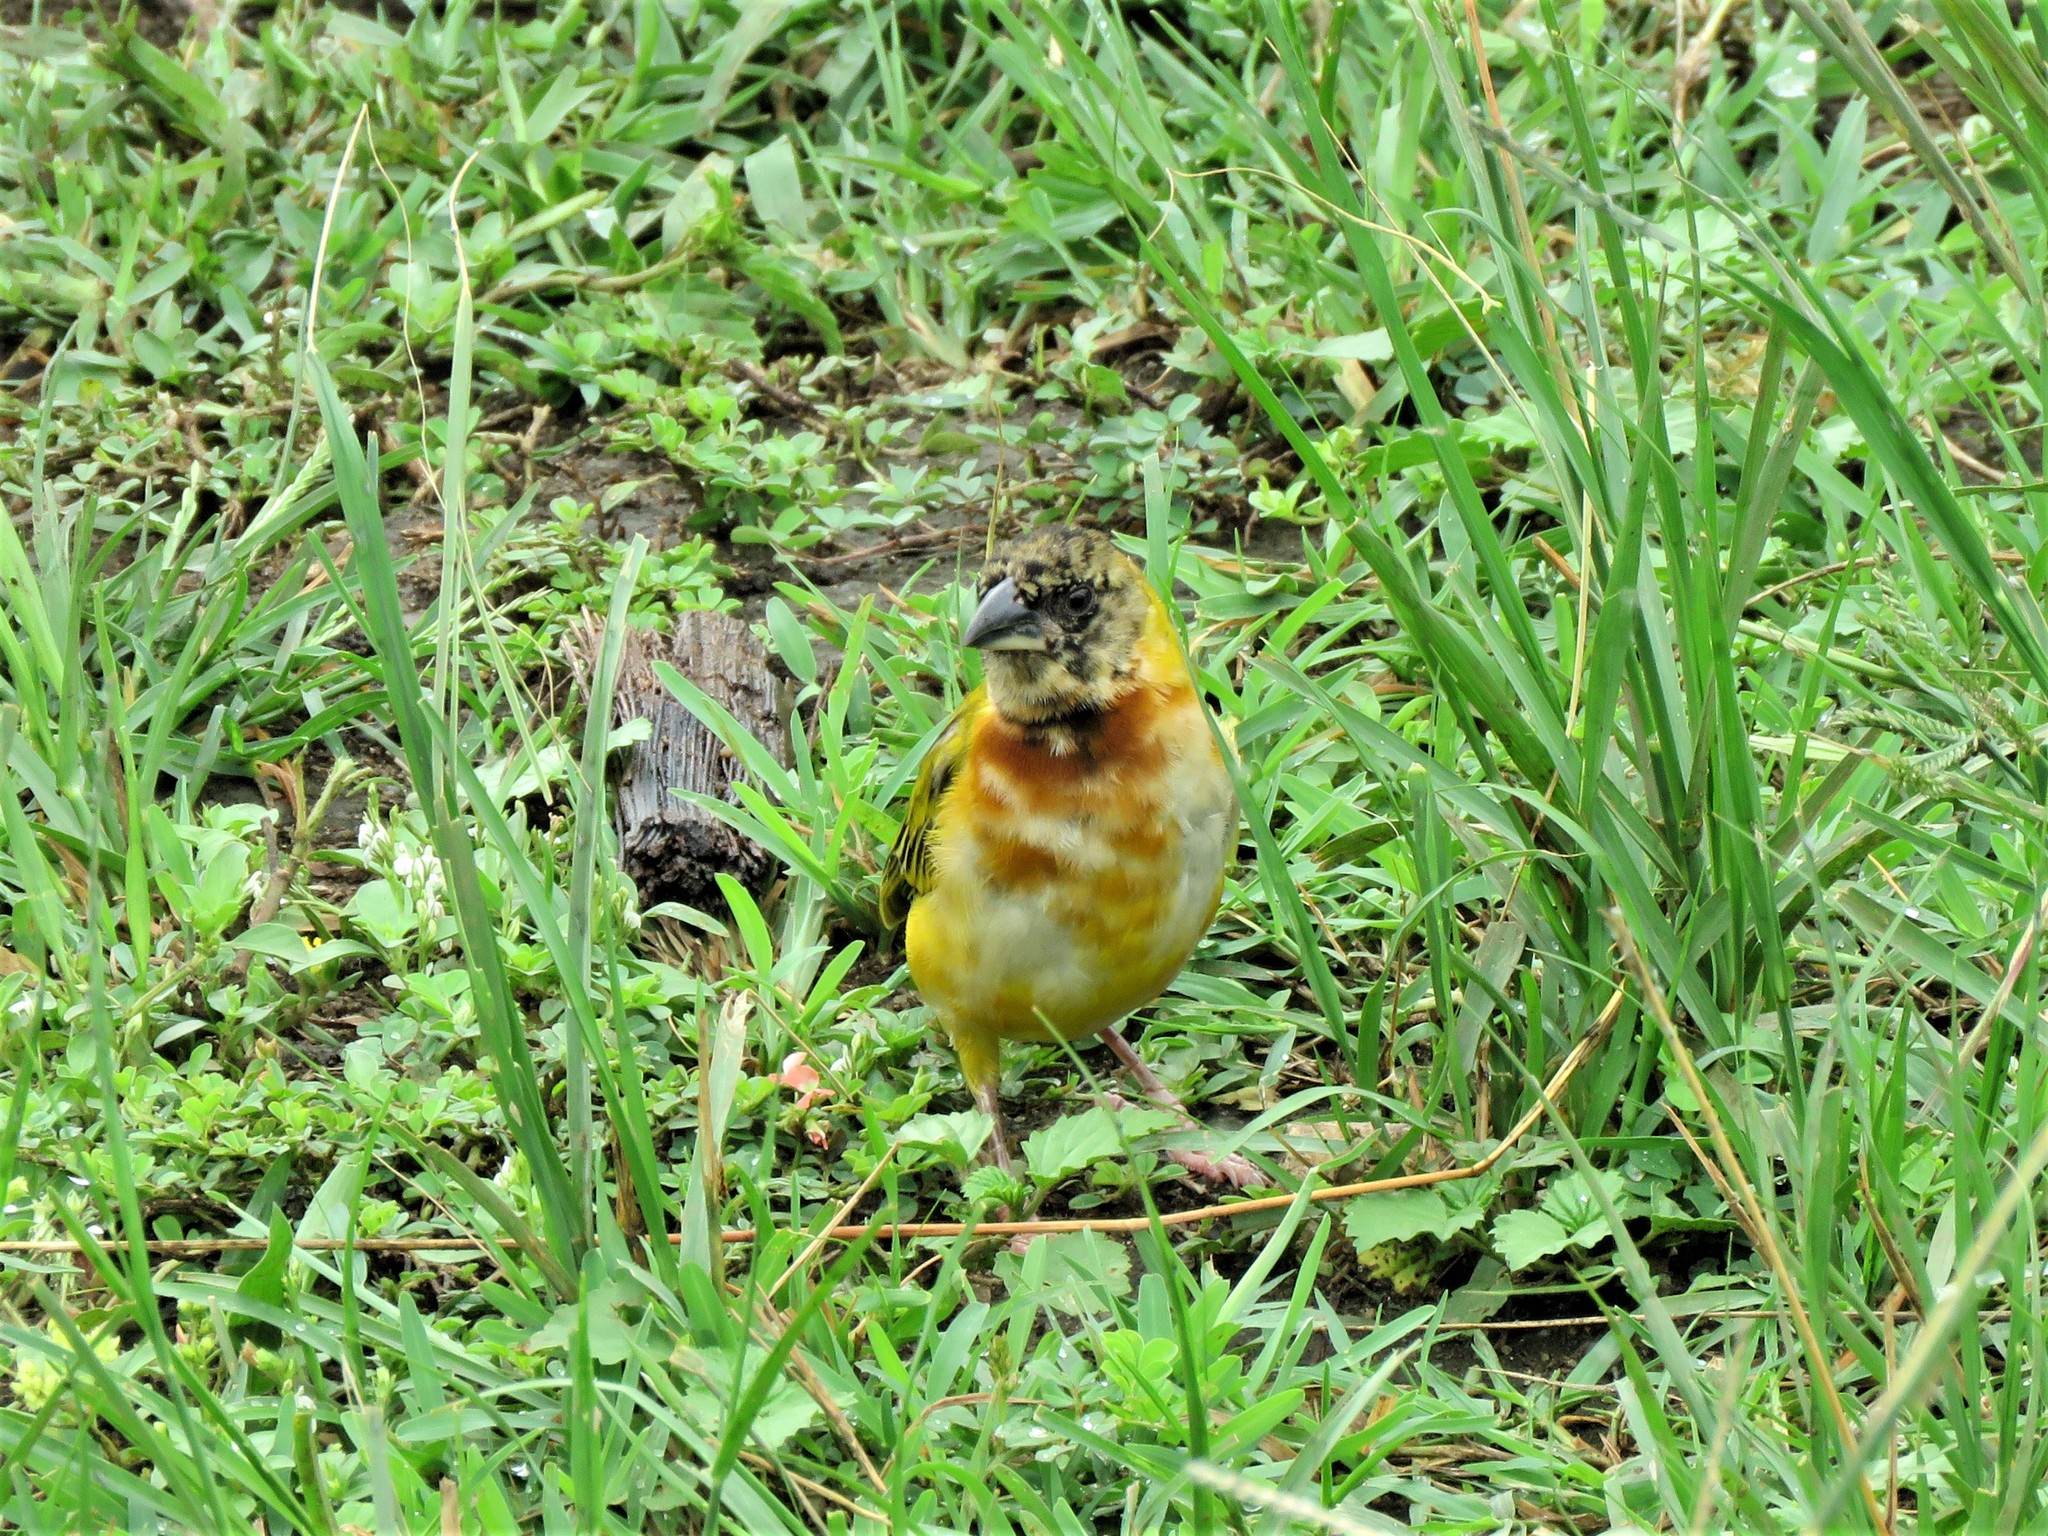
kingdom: Animalia
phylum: Chordata
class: Aves
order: Passeriformes
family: Ploceidae
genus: Ploceus
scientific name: Ploceus melanocephalus
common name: Black-headed weaver
